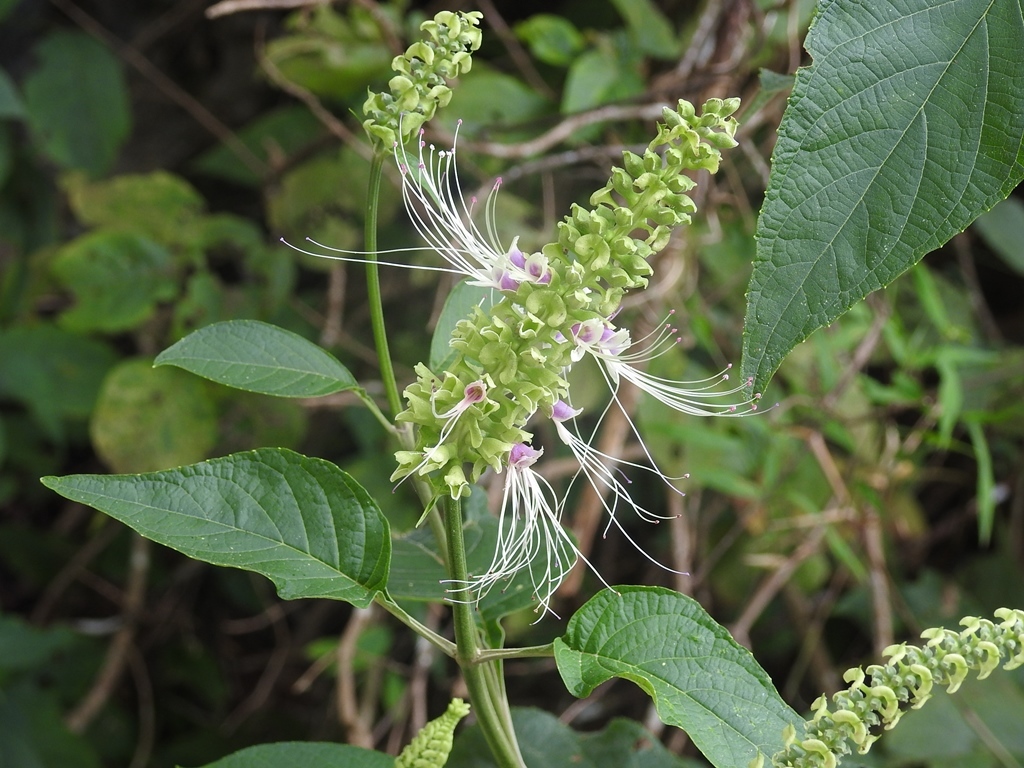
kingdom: Plantae
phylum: Tracheophyta
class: Magnoliopsida
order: Lamiales
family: Lamiaceae
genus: Catoferia
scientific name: Catoferia chiapensis
